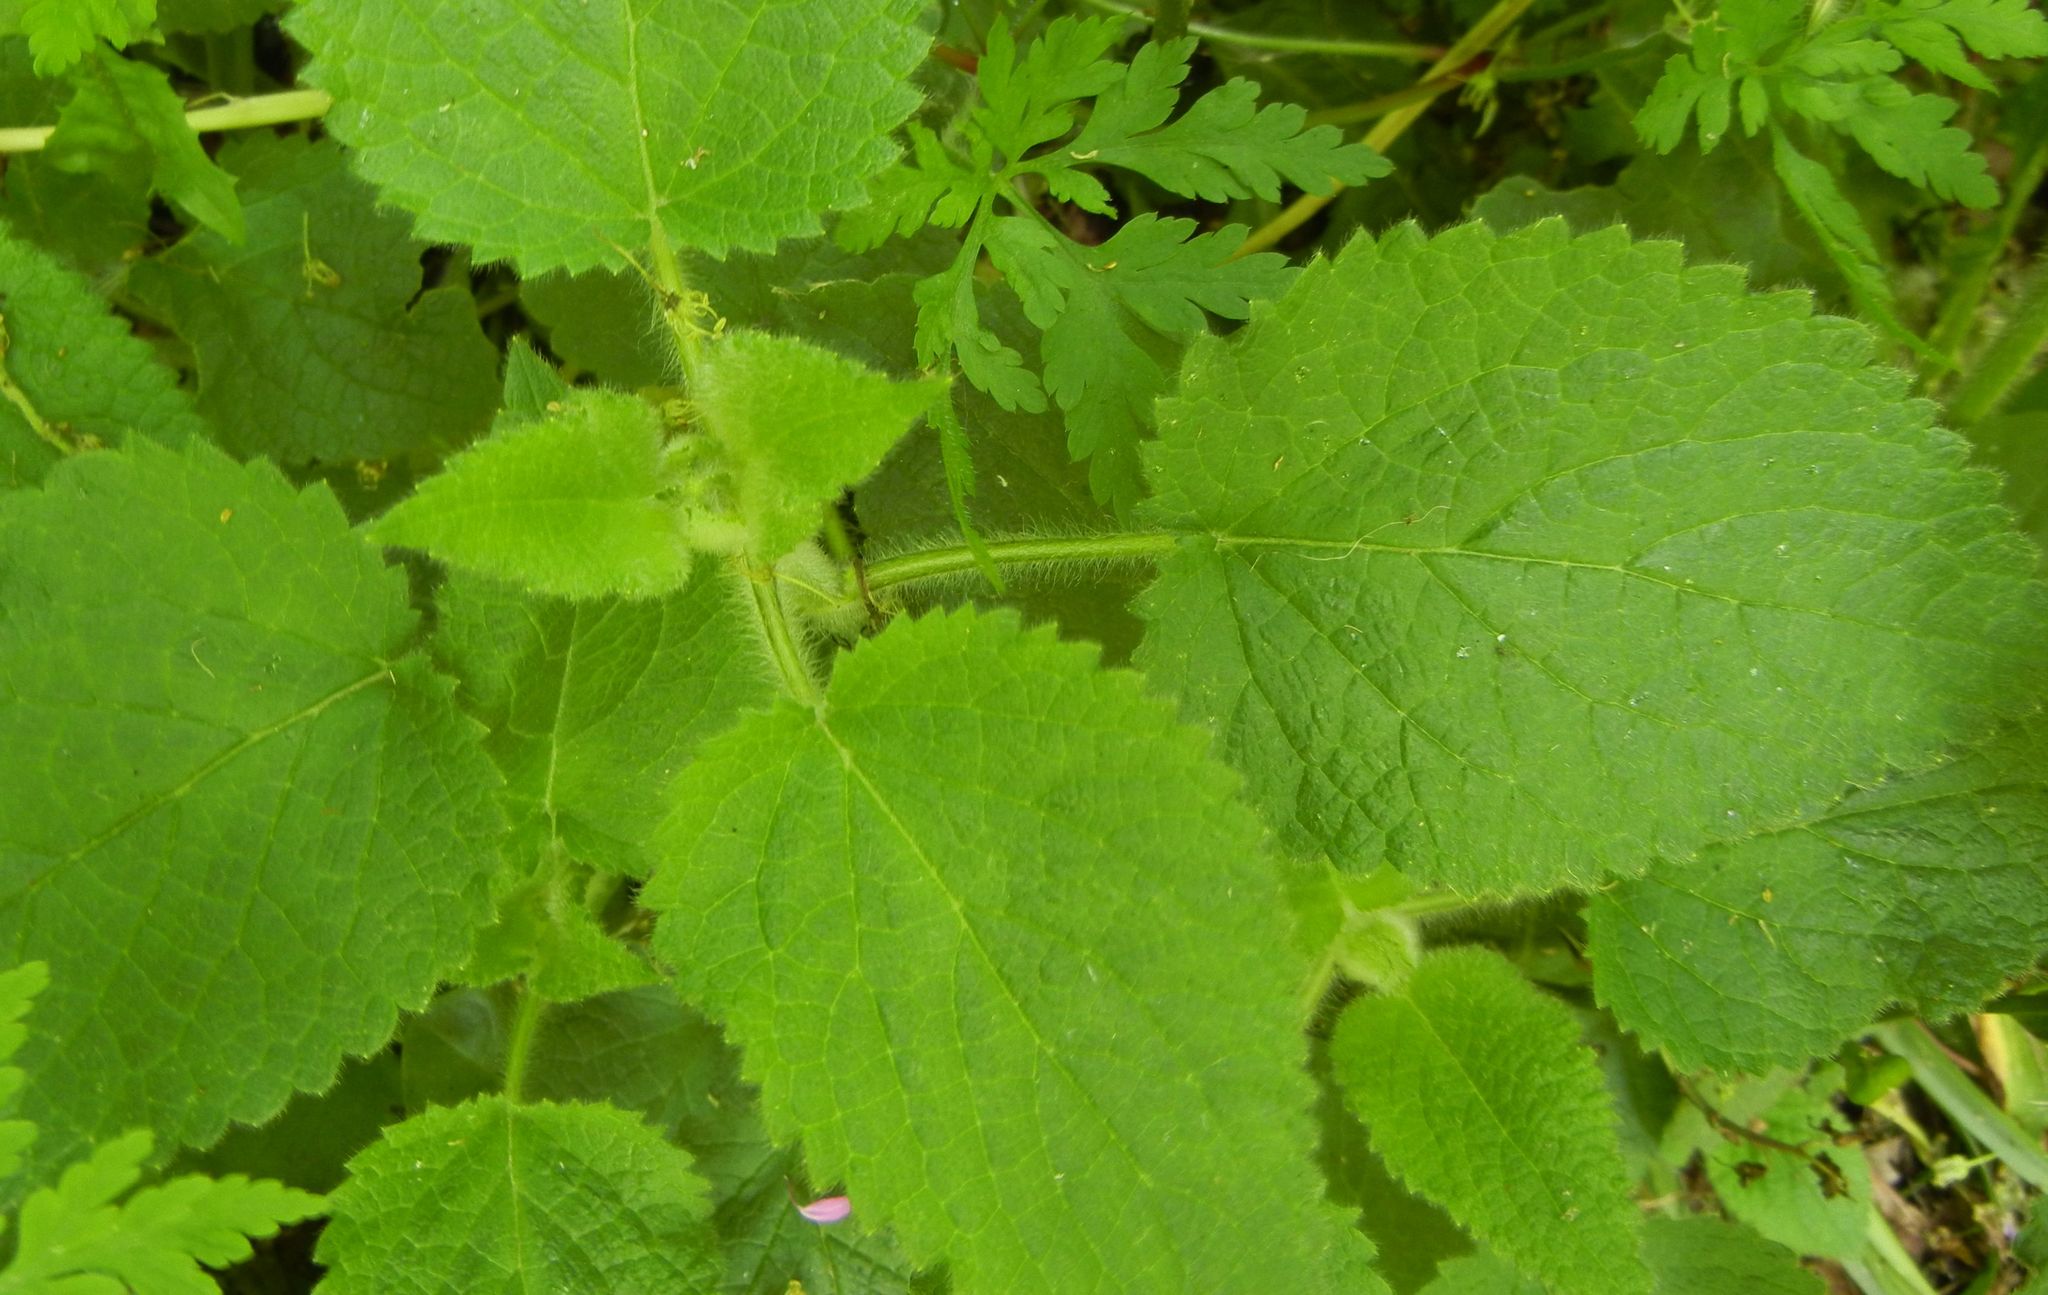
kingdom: Plantae
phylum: Tracheophyta
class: Magnoliopsida
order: Lamiales
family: Lamiaceae
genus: Stachys
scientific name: Stachys sylvatica
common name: Hedge woundwort
